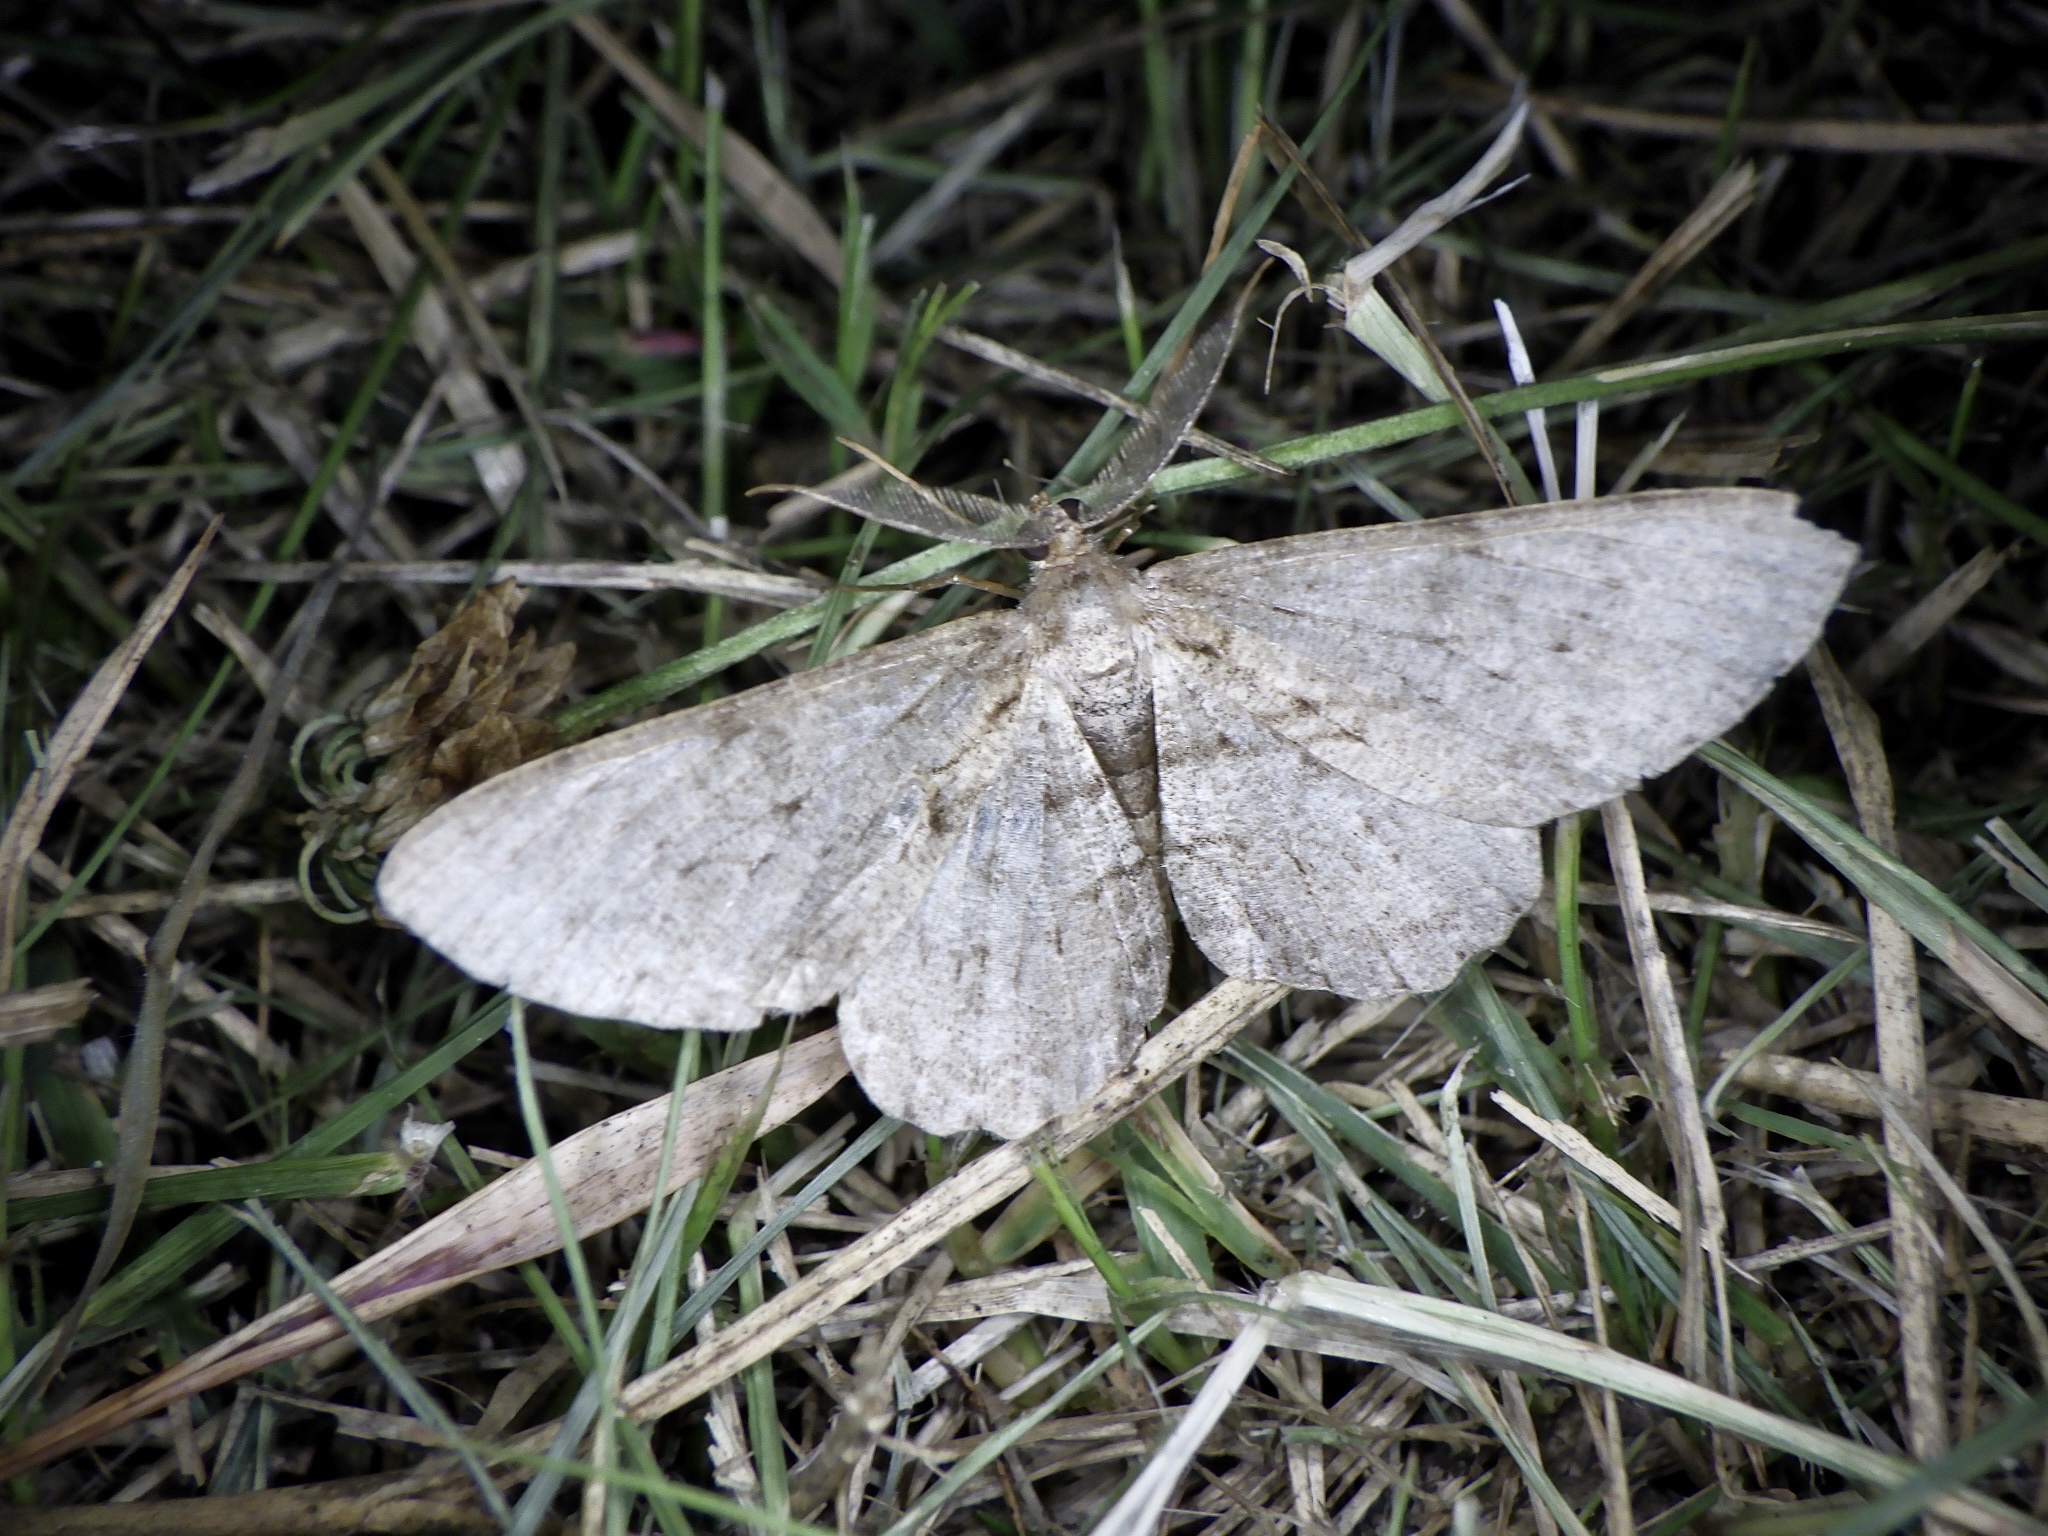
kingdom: Animalia
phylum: Arthropoda
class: Insecta
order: Lepidoptera
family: Geometridae
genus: Hypomecis
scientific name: Hypomecis punctinalis
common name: Pale oak beauty
